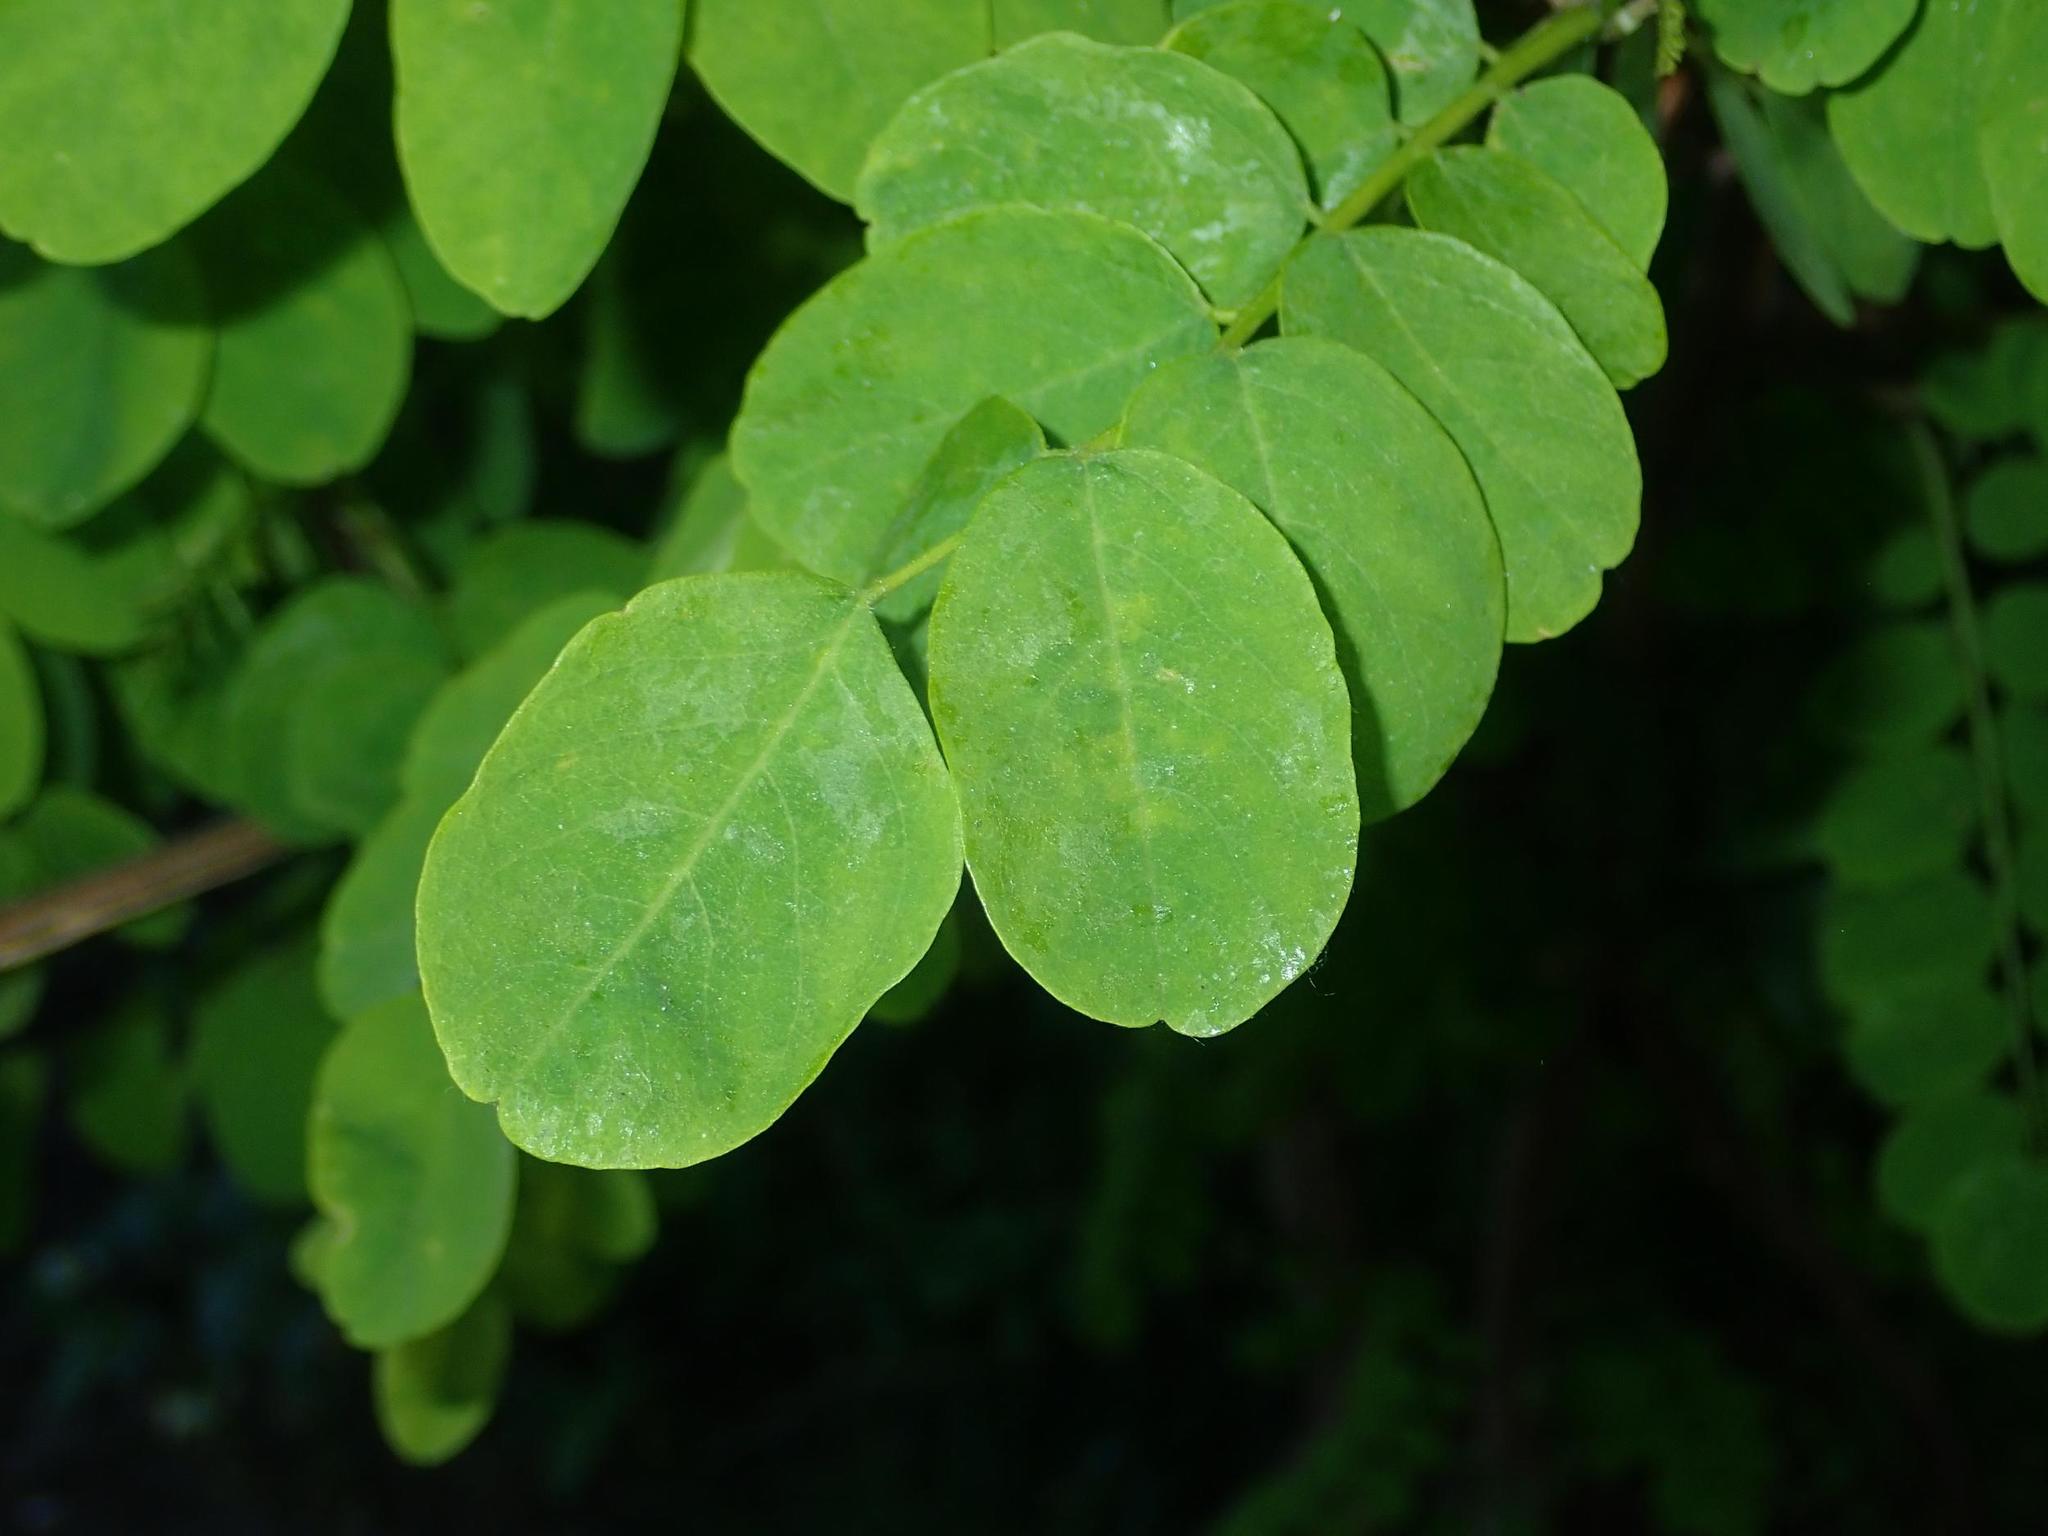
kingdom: Plantae
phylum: Tracheophyta
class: Magnoliopsida
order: Fabales
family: Fabaceae
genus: Robinia
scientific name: Robinia pseudoacacia
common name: Black locust
